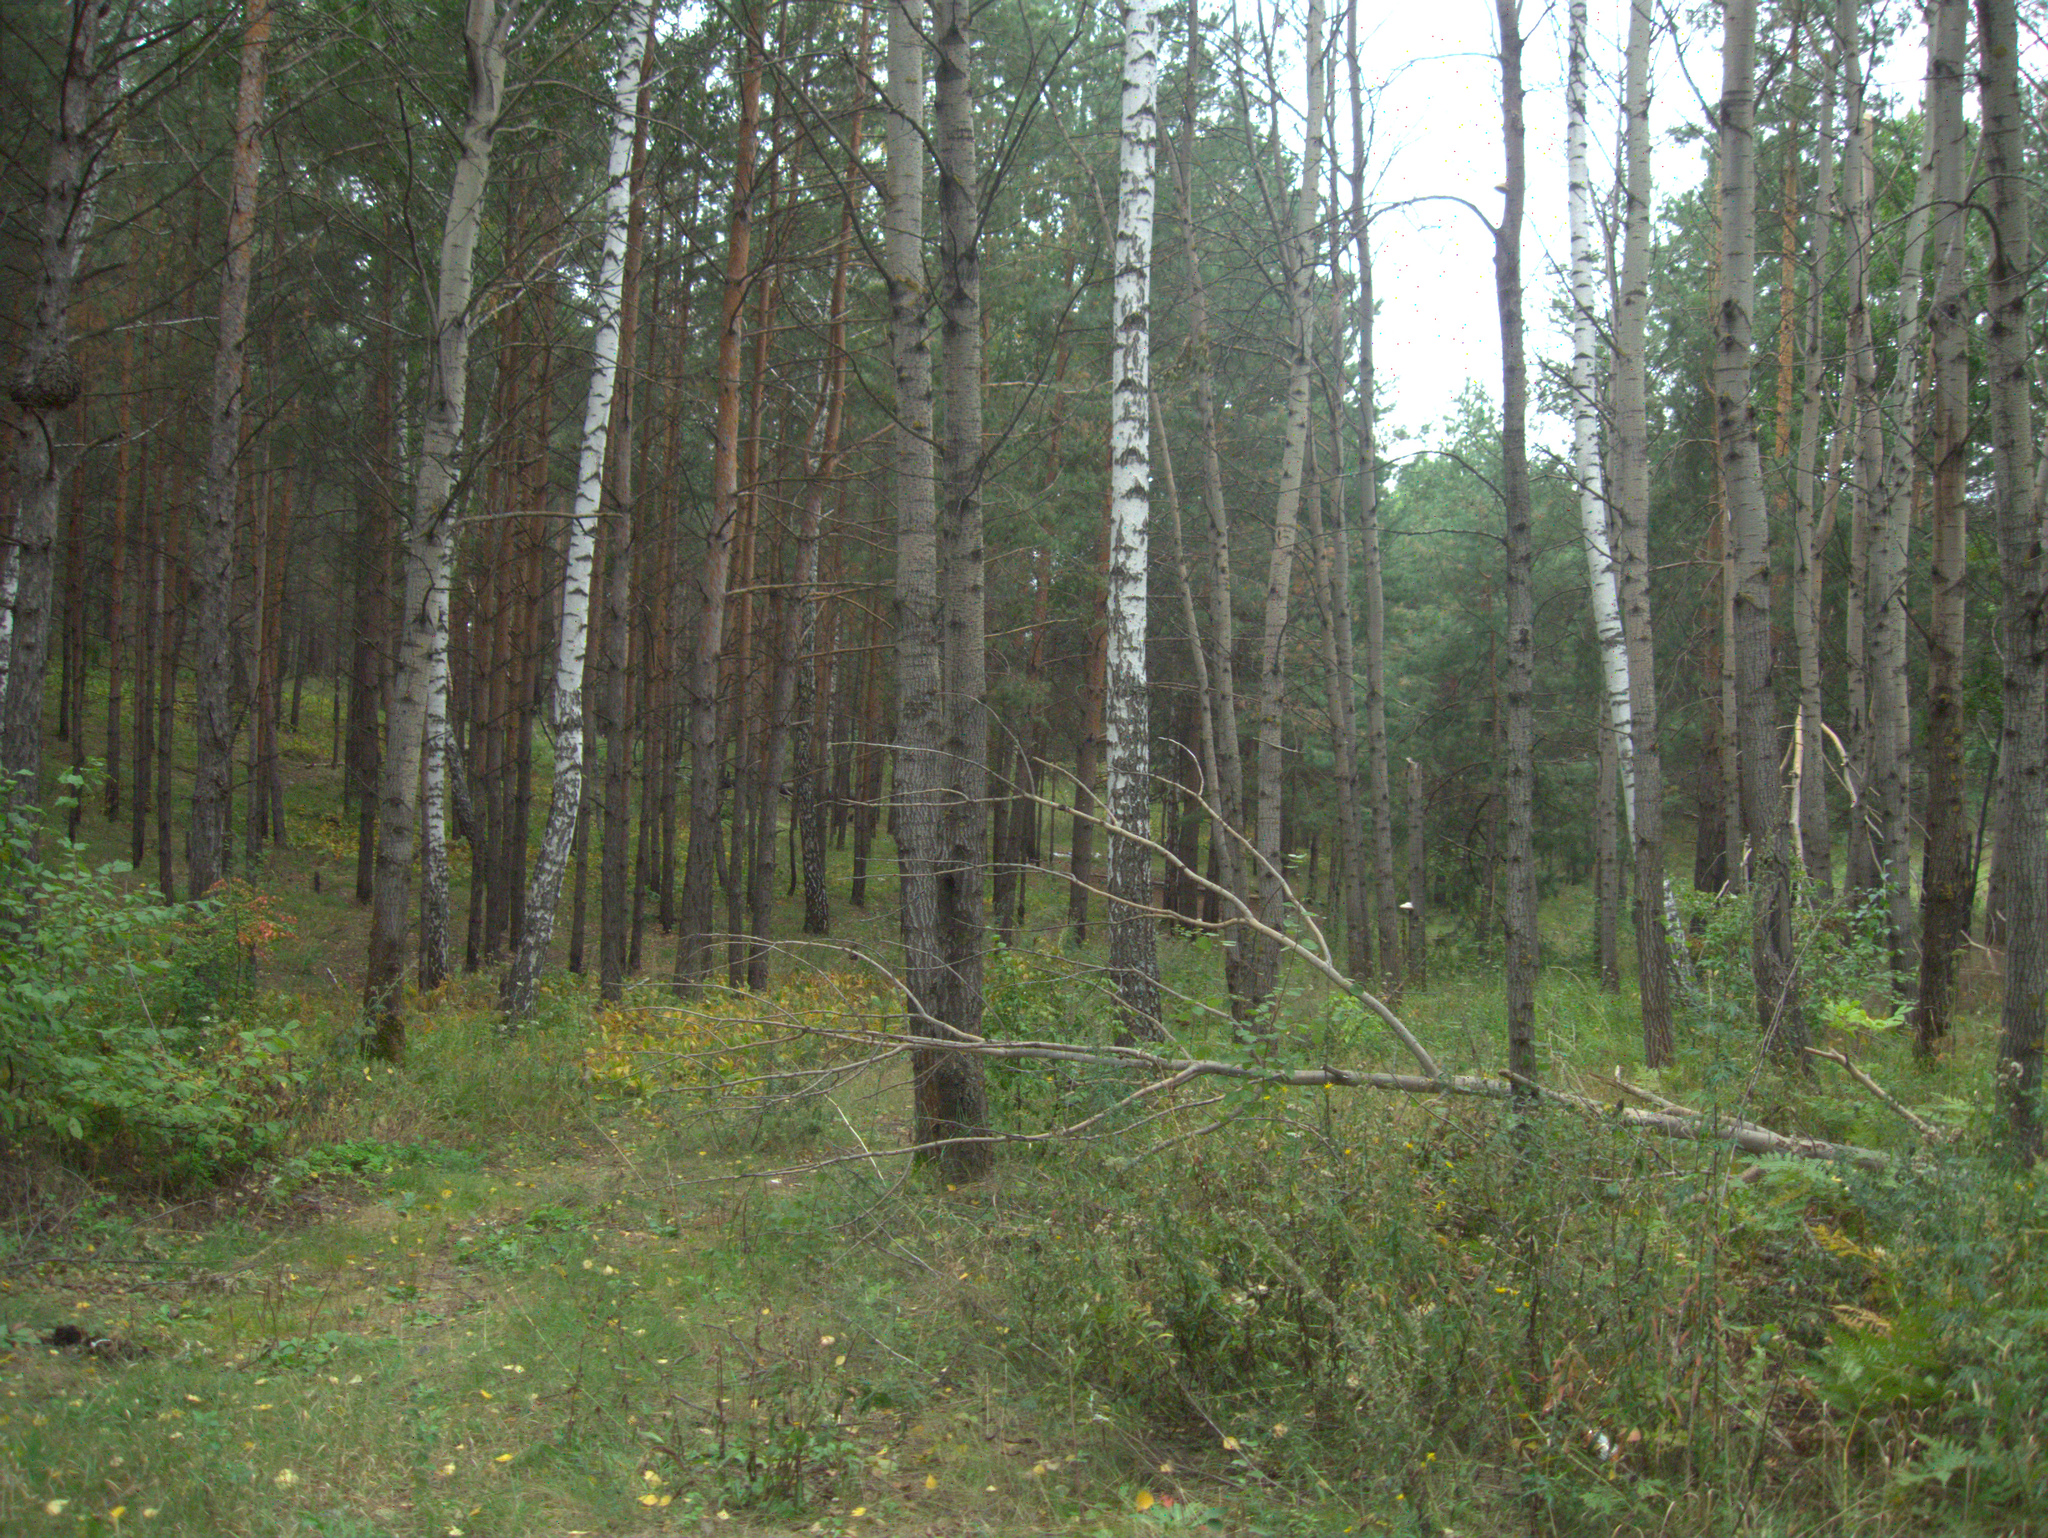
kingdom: Plantae
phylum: Tracheophyta
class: Magnoliopsida
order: Malpighiales
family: Salicaceae
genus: Populus
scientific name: Populus tremula
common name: European aspen
